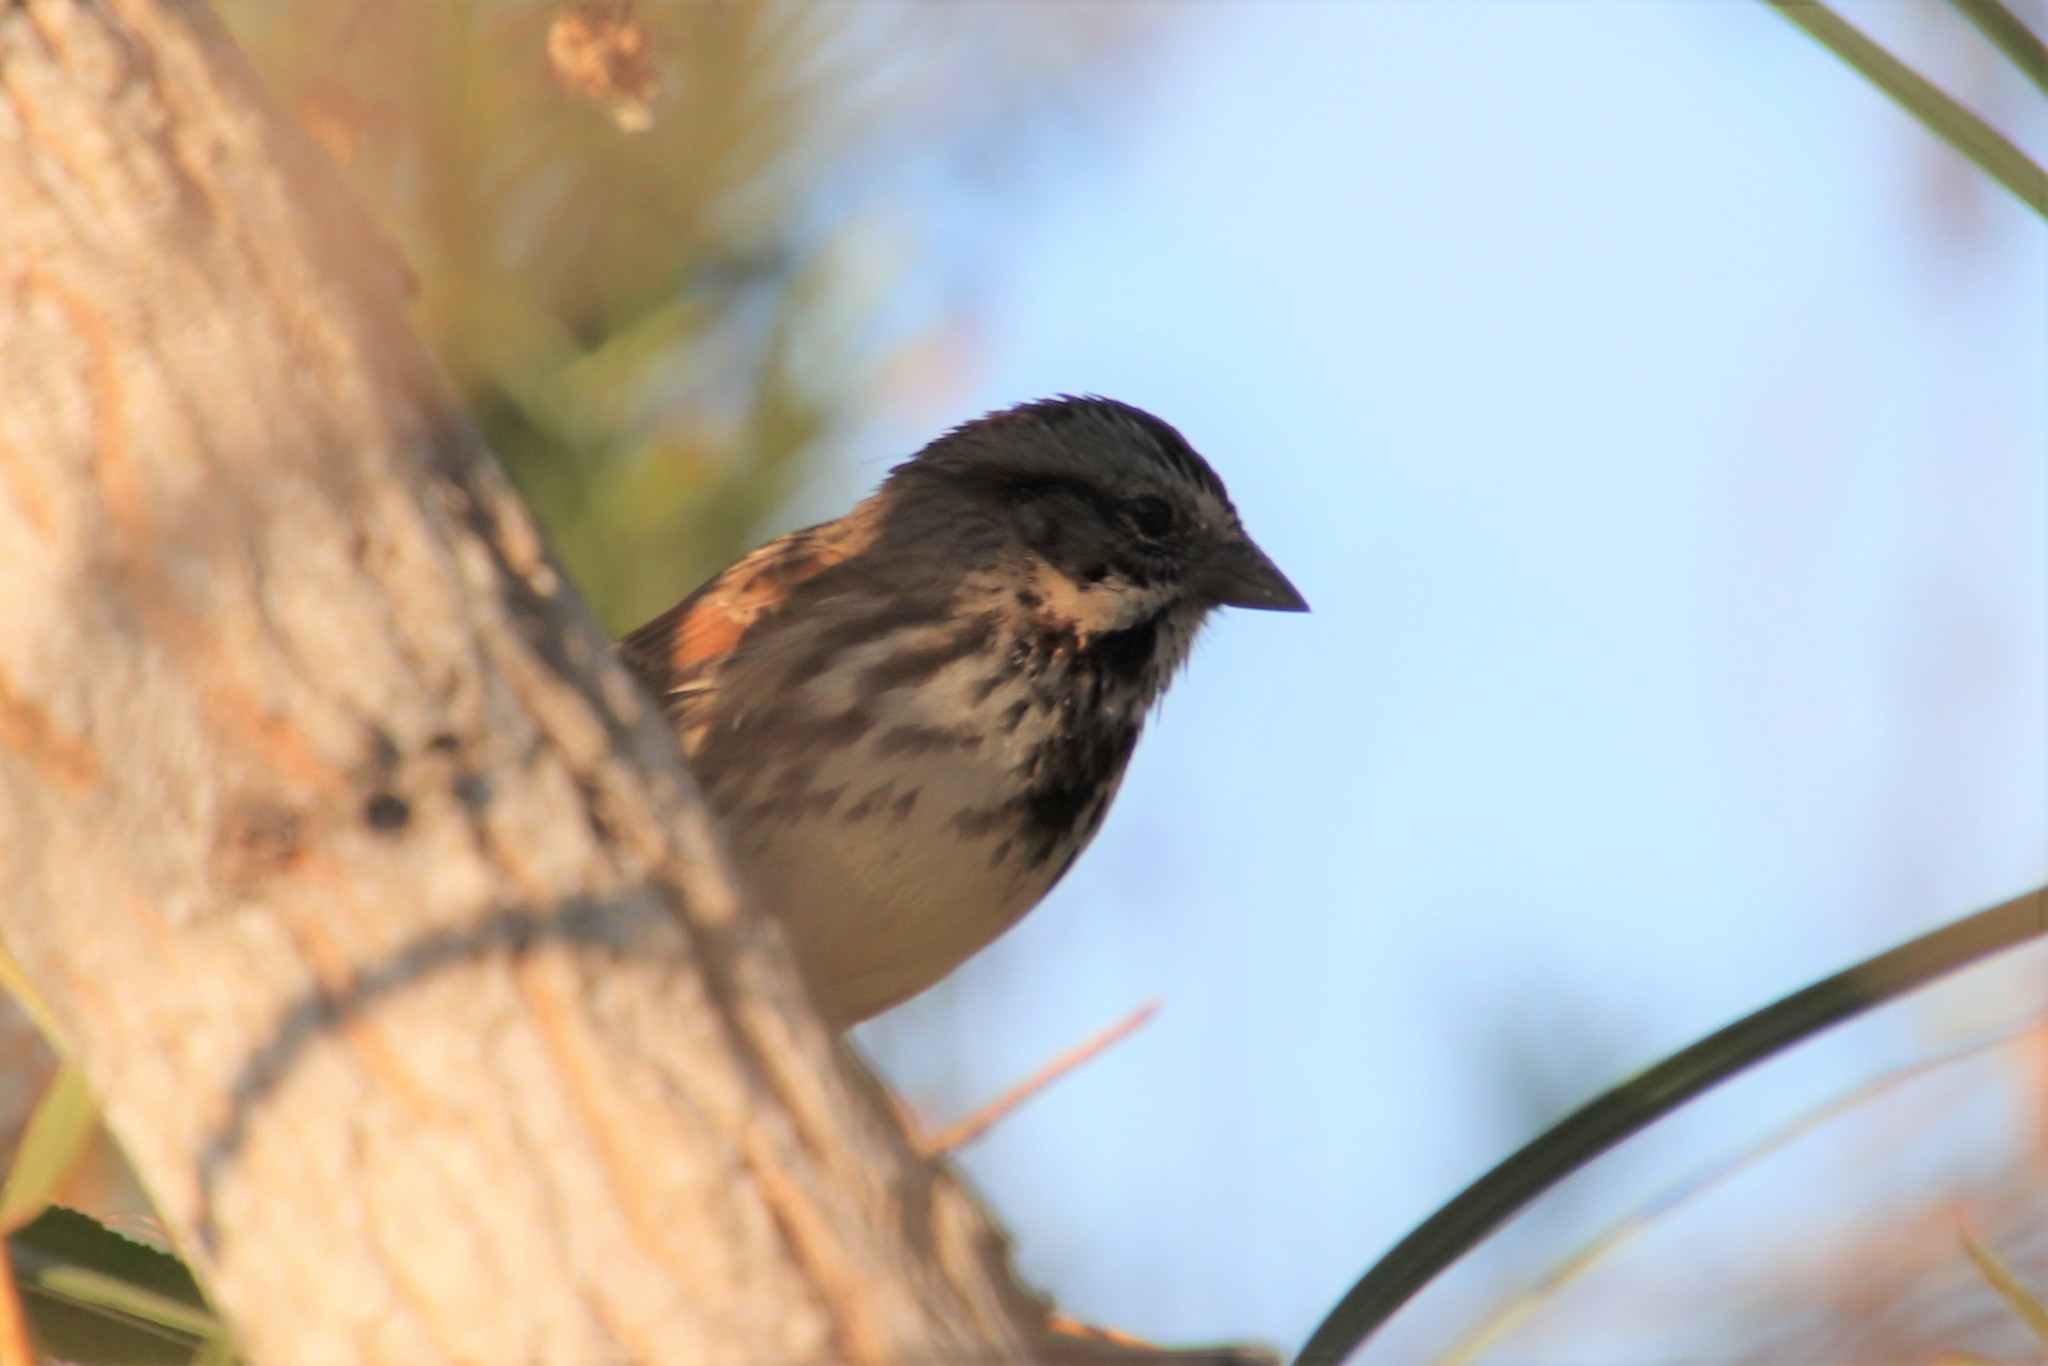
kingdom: Animalia
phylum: Chordata
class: Aves
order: Passeriformes
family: Passerellidae
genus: Melospiza
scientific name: Melospiza melodia
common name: Song sparrow
